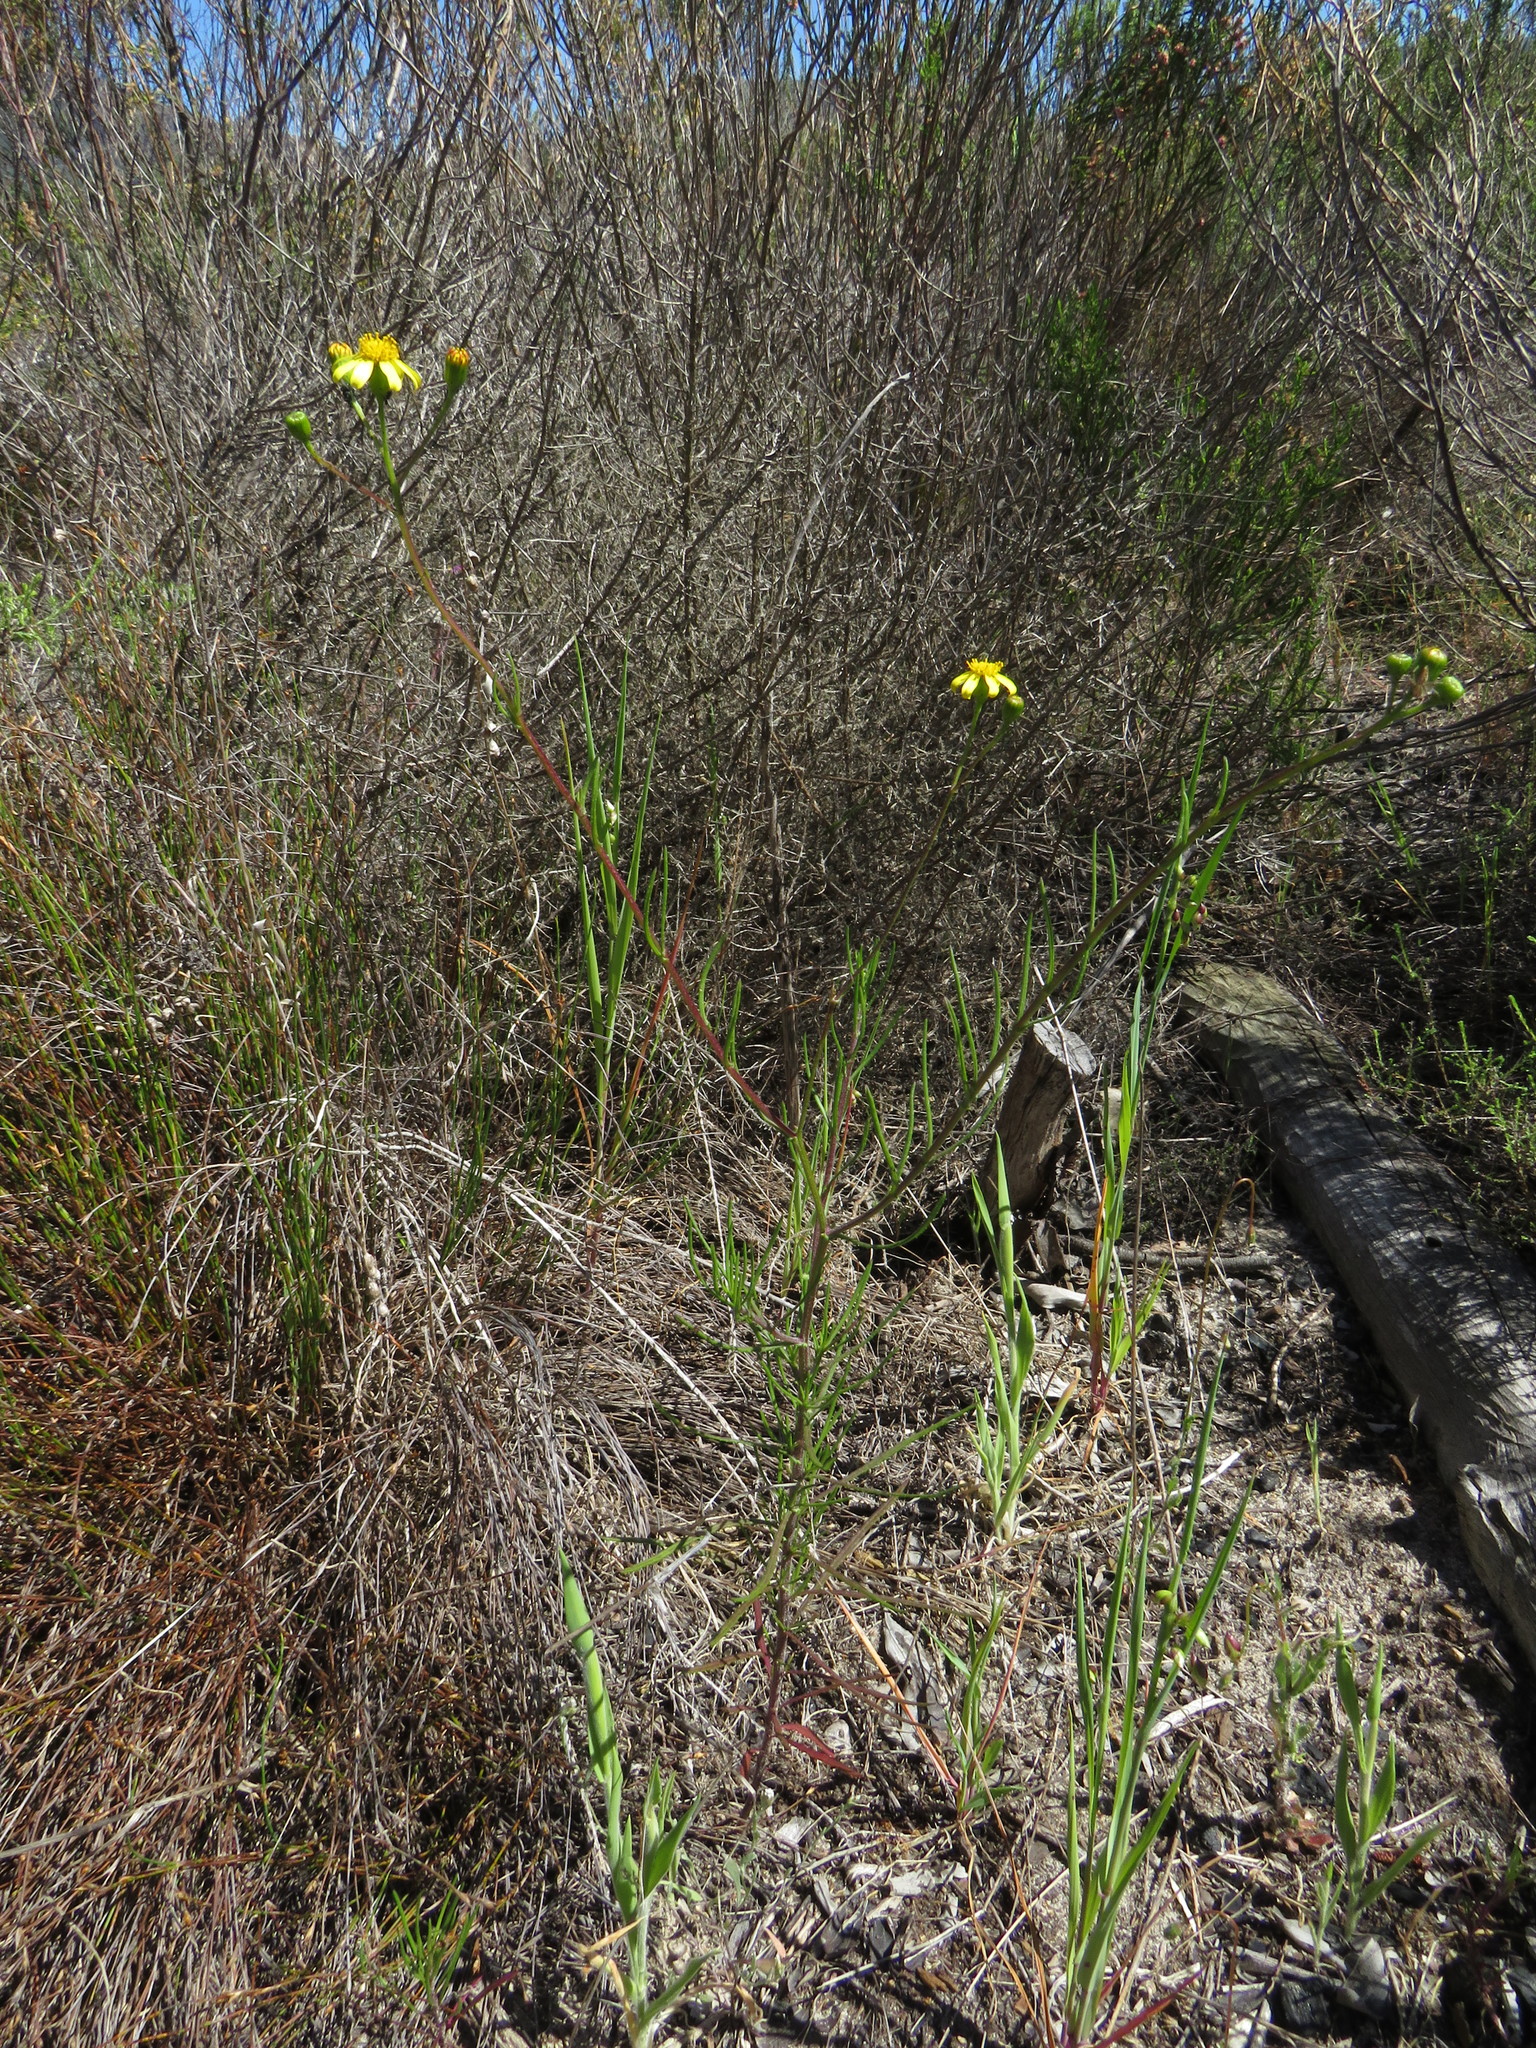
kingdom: Plantae
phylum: Tracheophyta
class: Magnoliopsida
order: Asterales
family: Asteraceae
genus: Senecio
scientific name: Senecio burchellii
